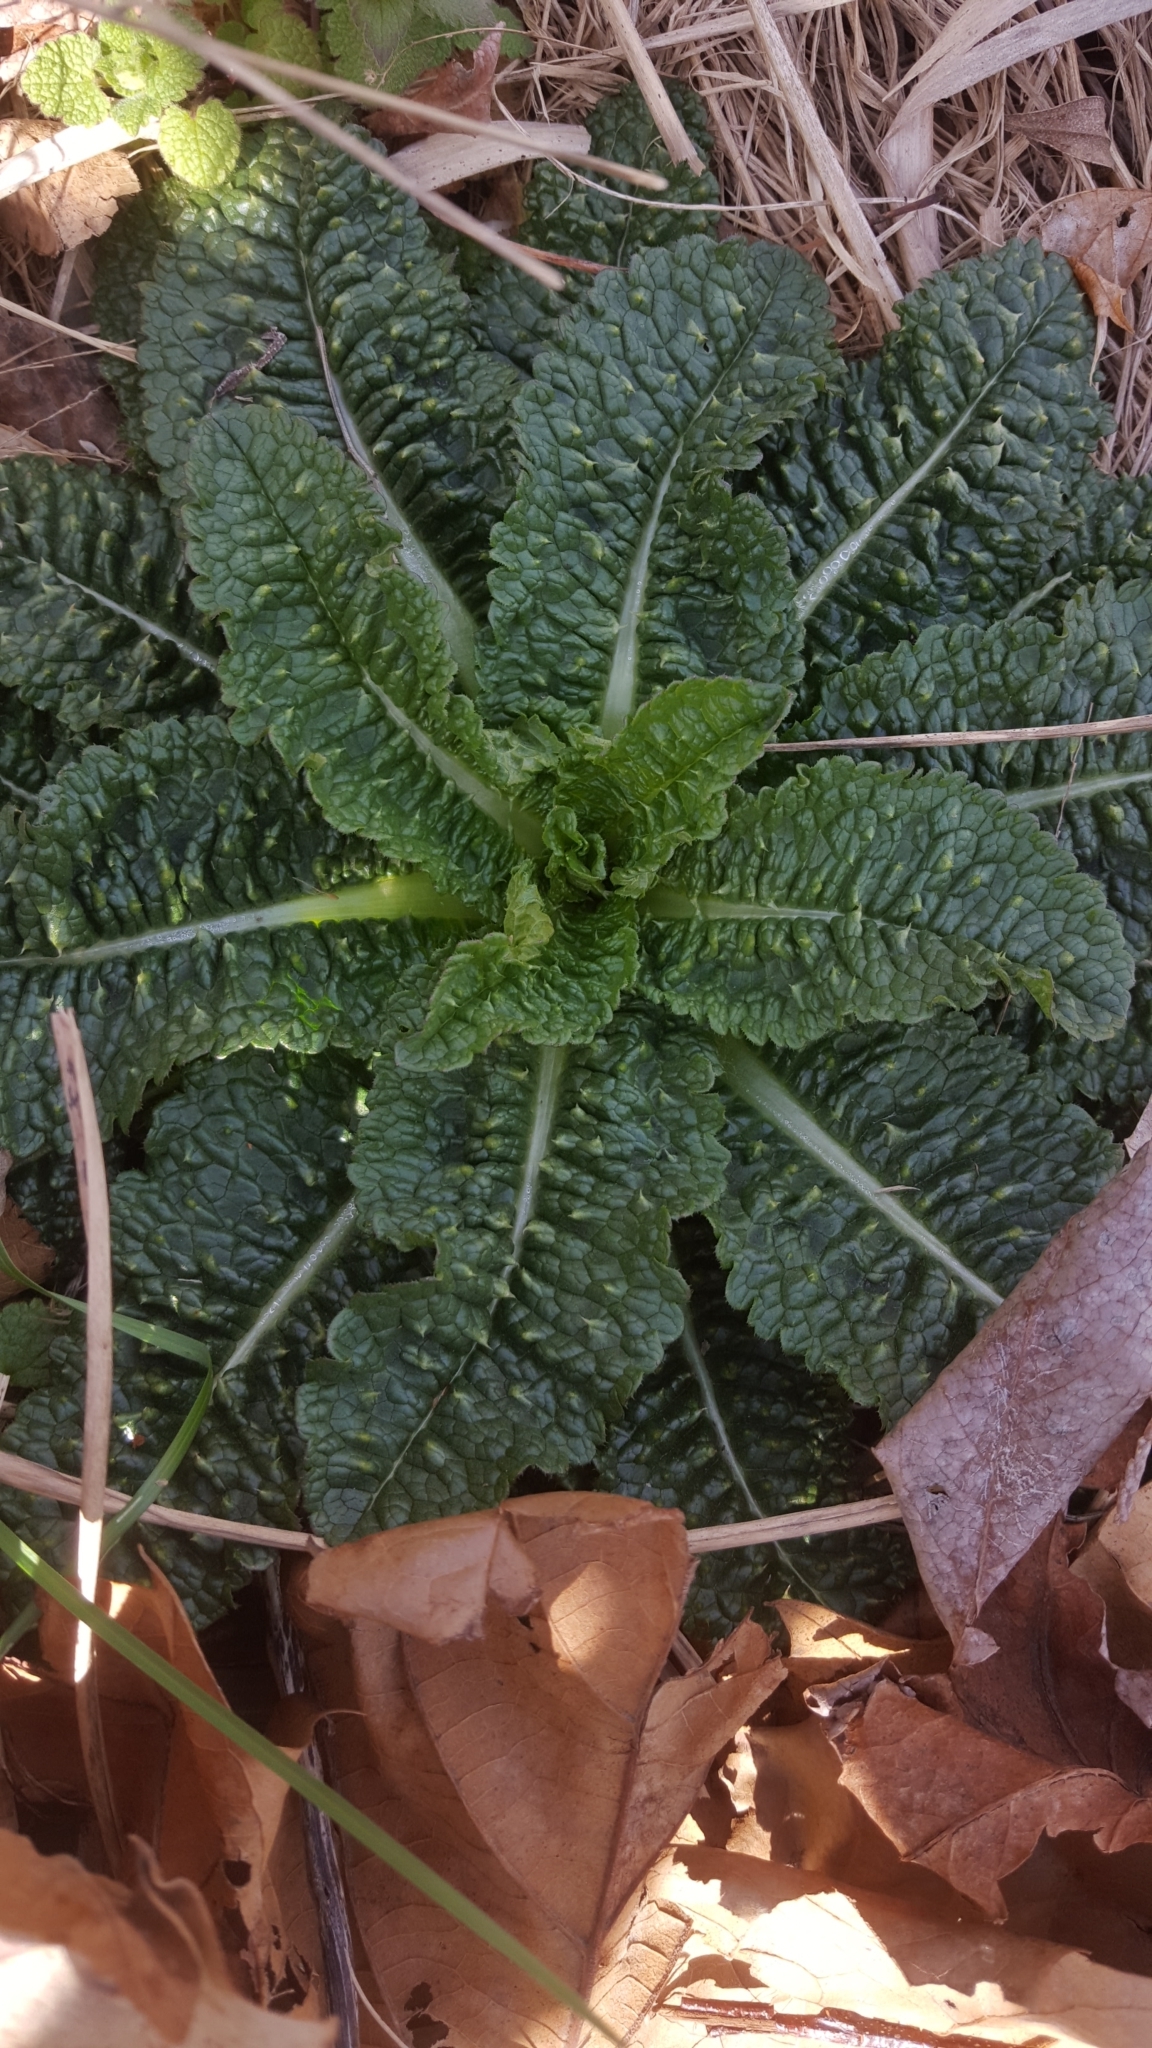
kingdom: Plantae
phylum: Tracheophyta
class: Magnoliopsida
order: Dipsacales
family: Caprifoliaceae
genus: Dipsacus
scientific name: Dipsacus fullonum
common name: Teasel
